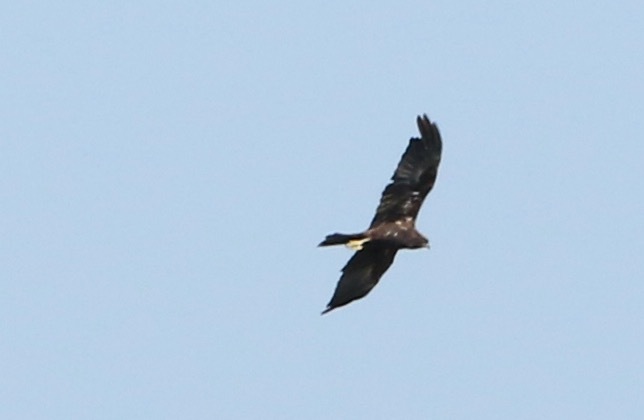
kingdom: Animalia
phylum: Chordata
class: Aves
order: Accipitriformes
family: Accipitridae
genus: Circus
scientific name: Circus aeruginosus
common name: Western marsh harrier
